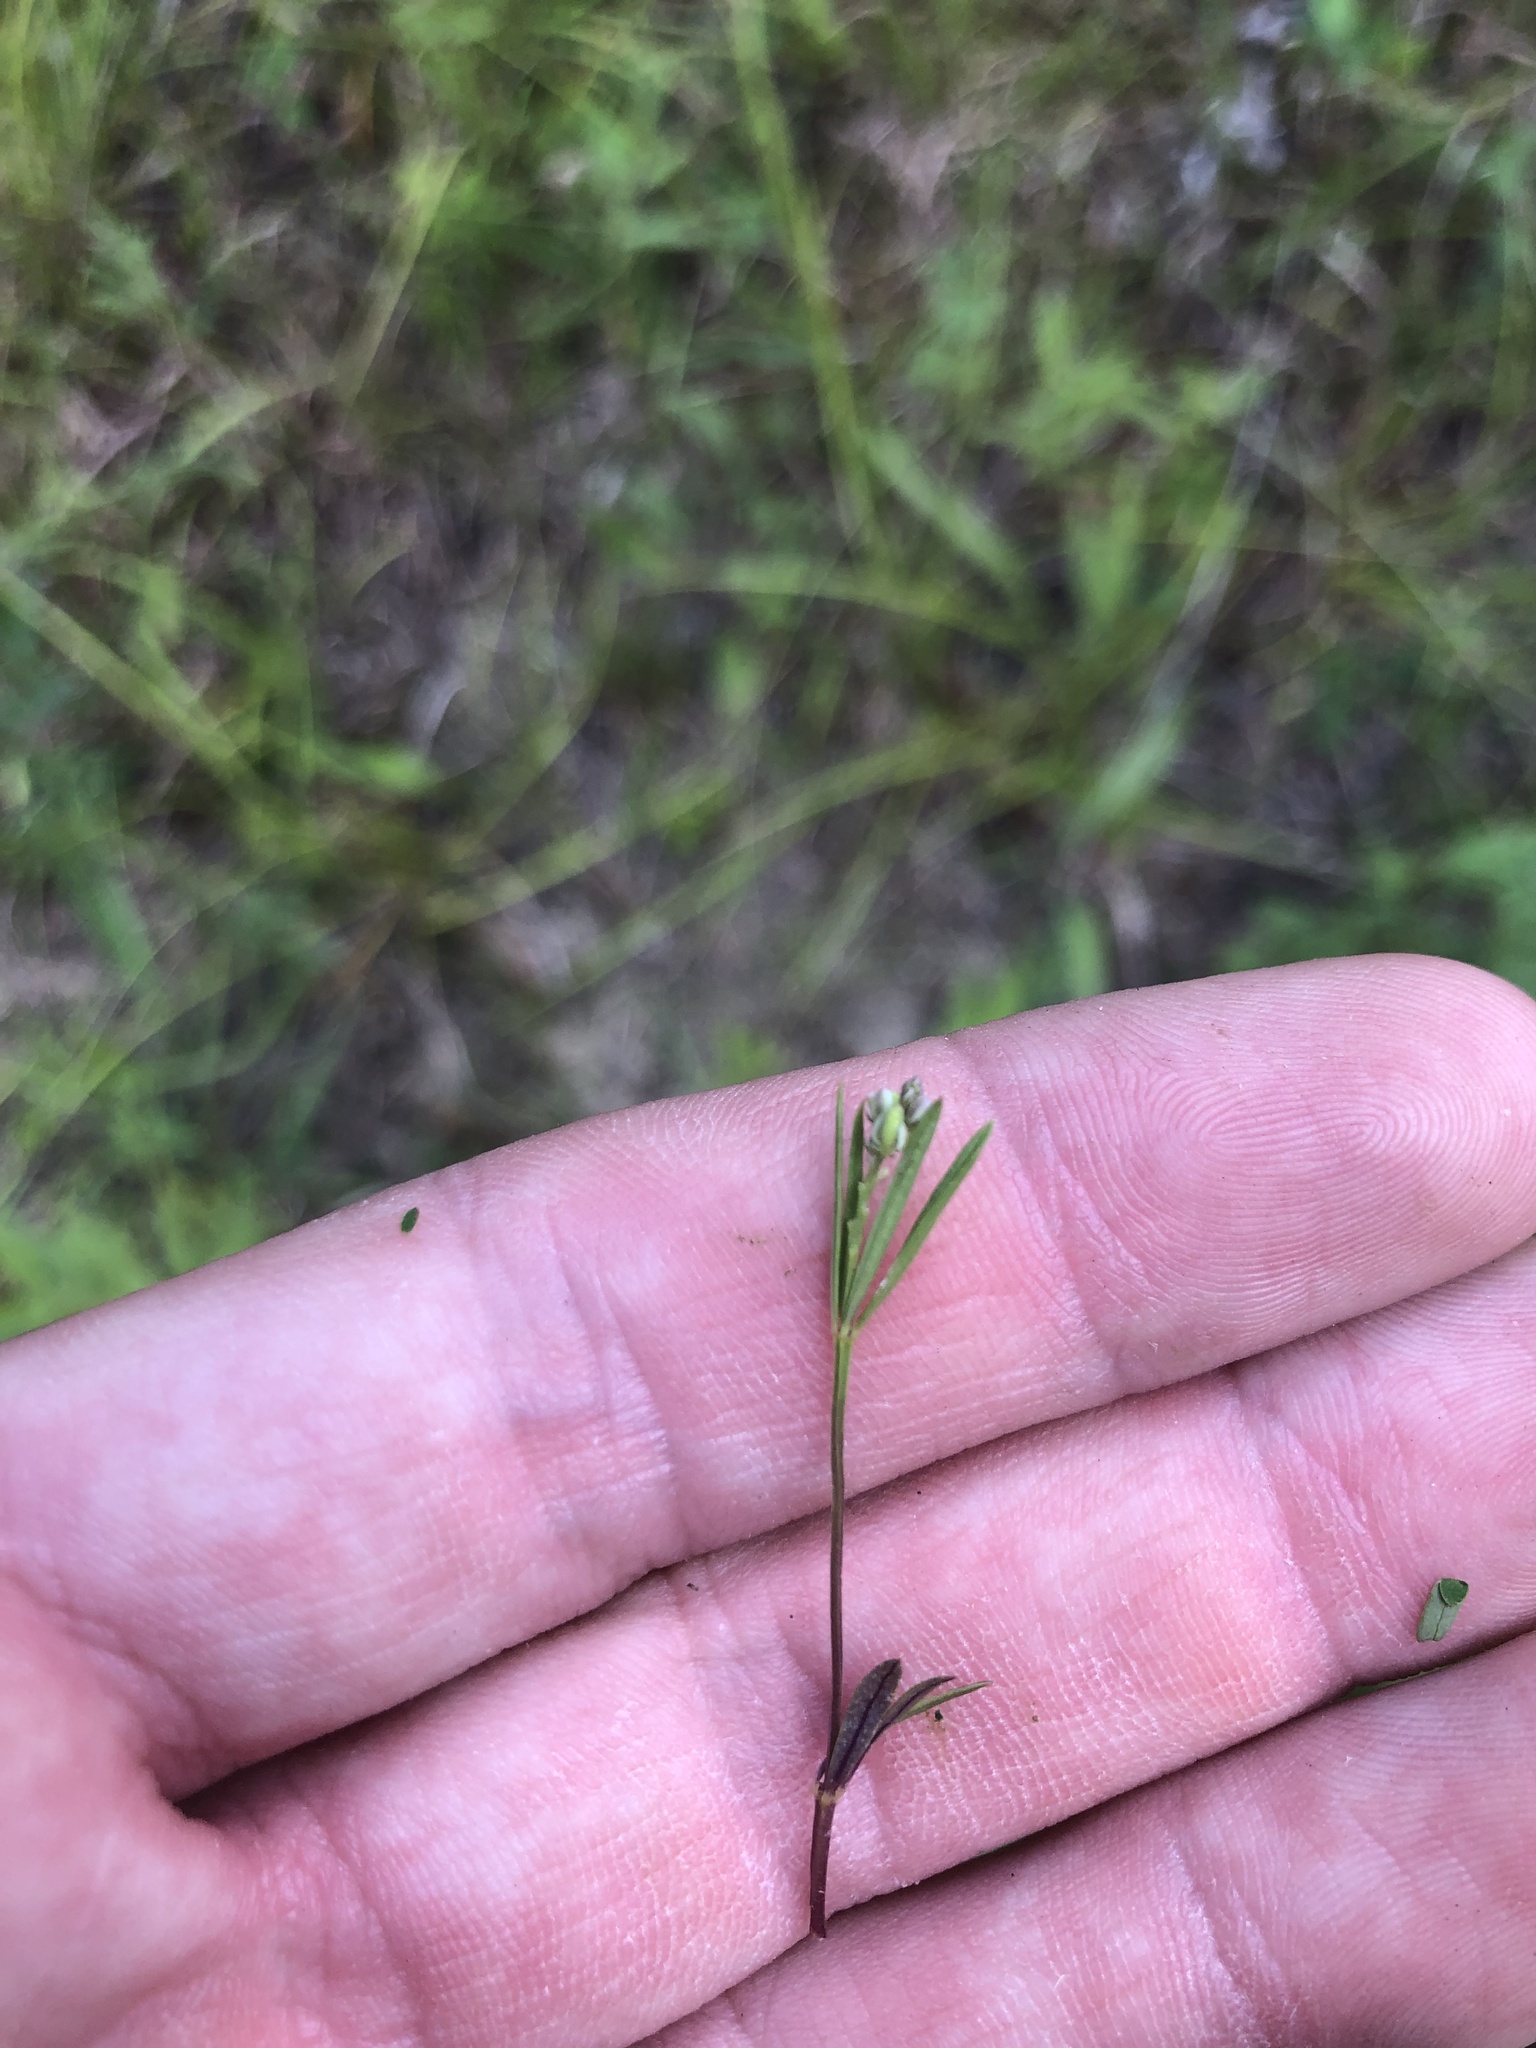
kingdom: Plantae
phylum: Tracheophyta
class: Magnoliopsida
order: Fabales
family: Polygalaceae
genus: Polygala
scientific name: Polygala verticillata
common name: Whorl milkwort
